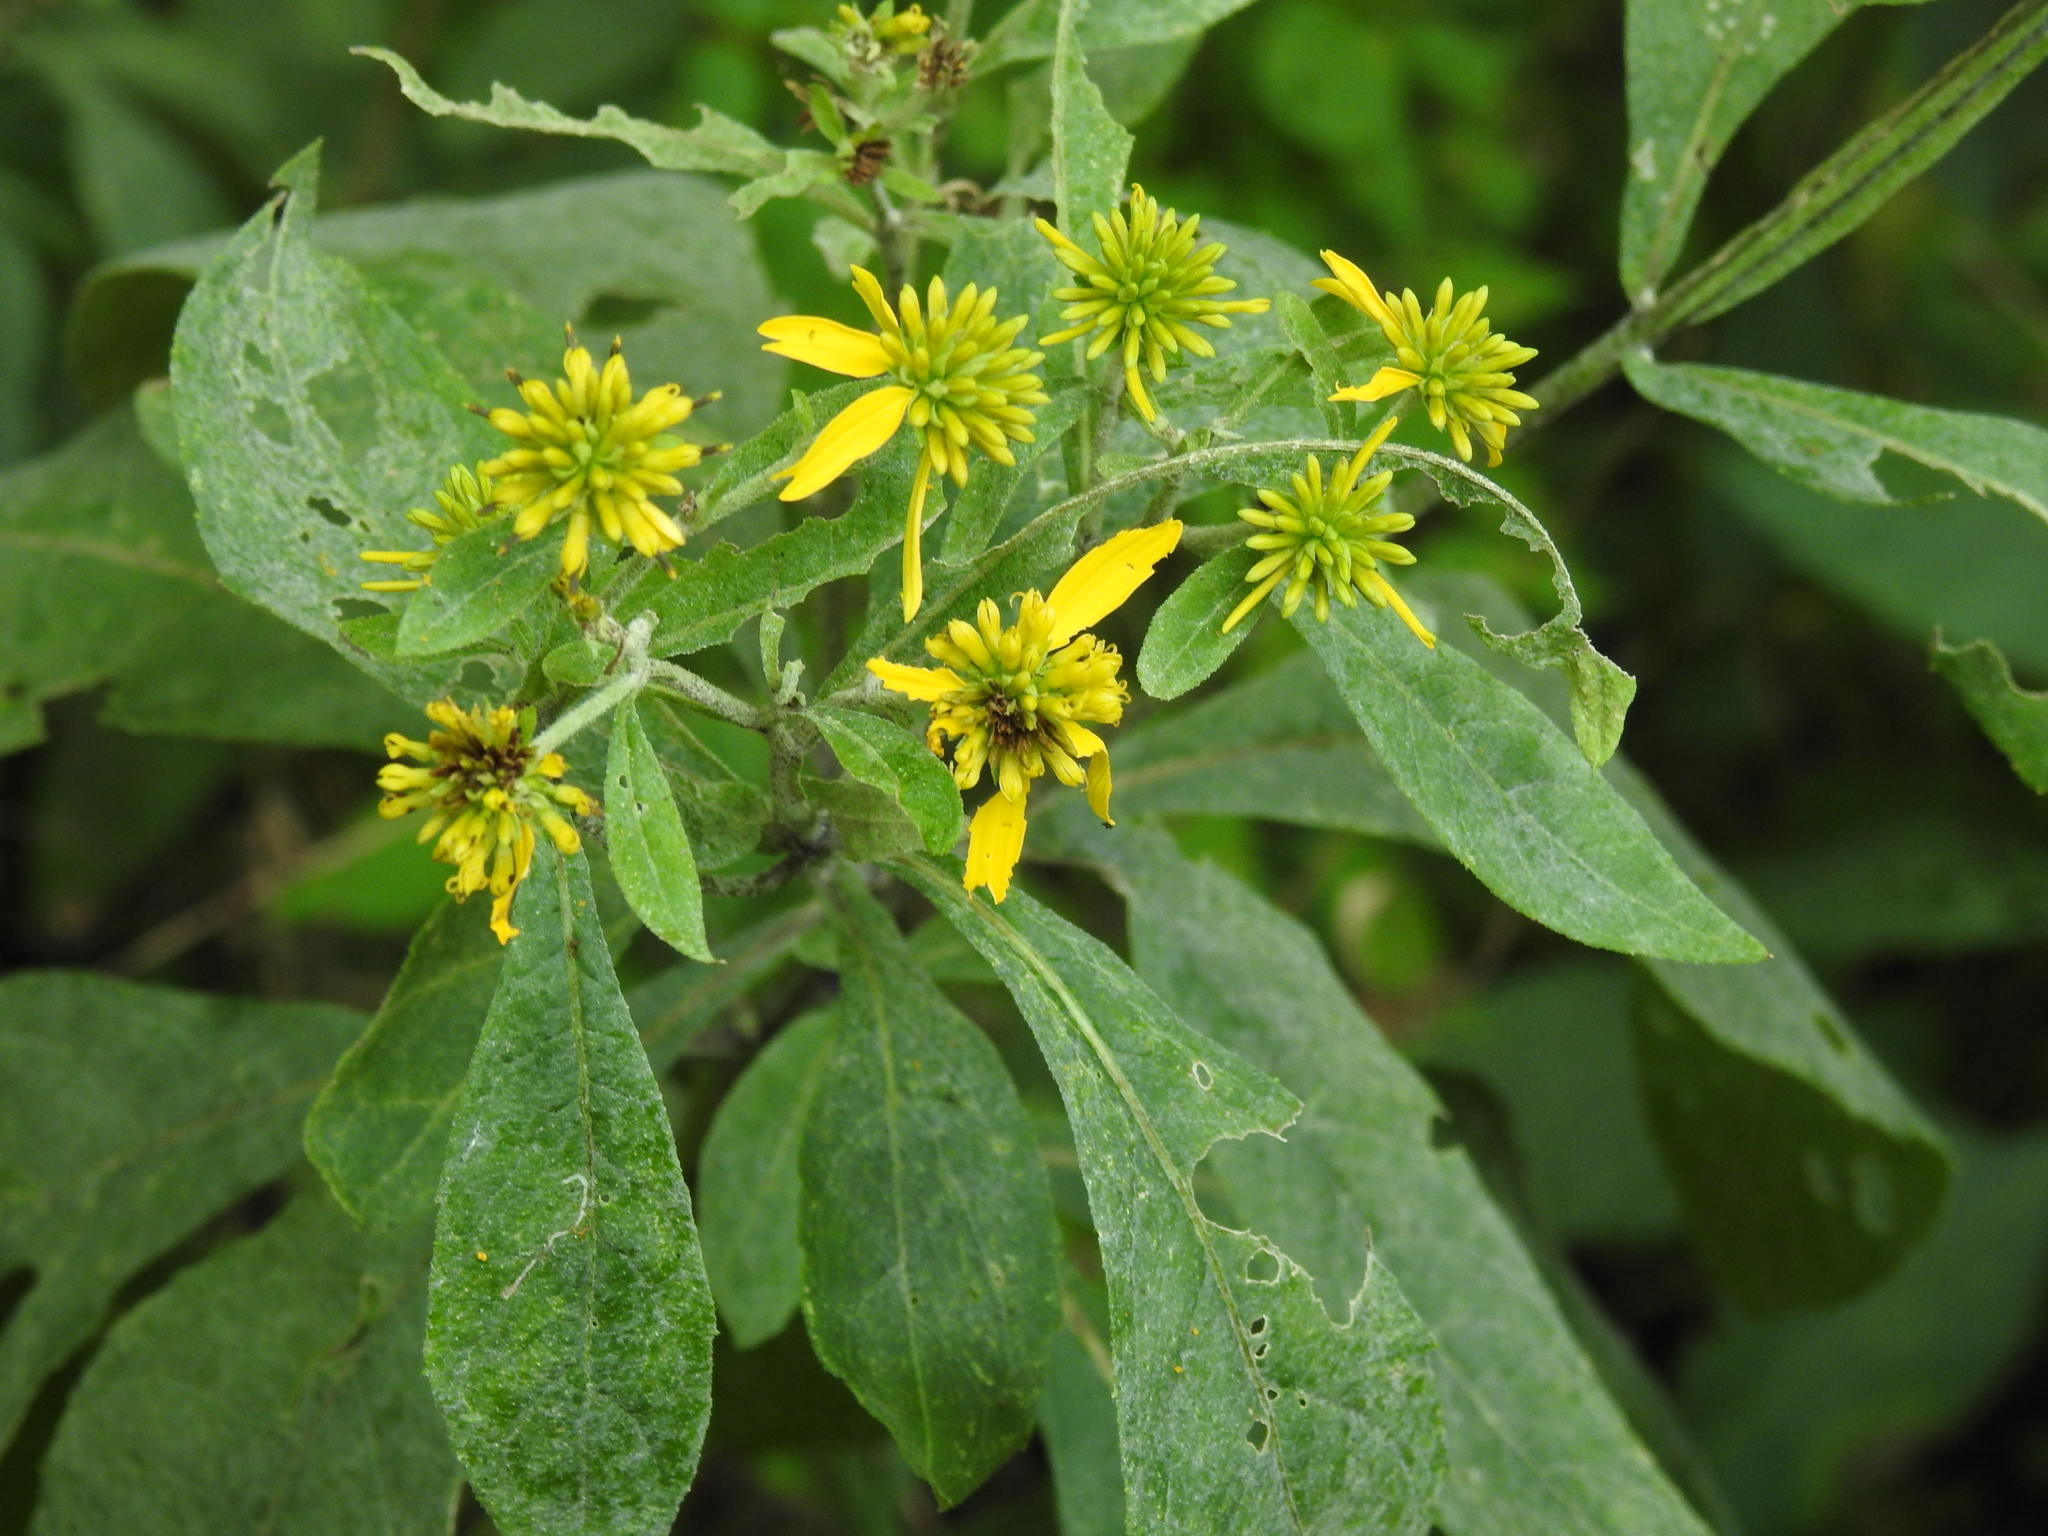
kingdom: Plantae
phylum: Tracheophyta
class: Magnoliopsida
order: Asterales
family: Asteraceae
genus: Verbesina
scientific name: Verbesina alternifolia
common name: Wingstem
